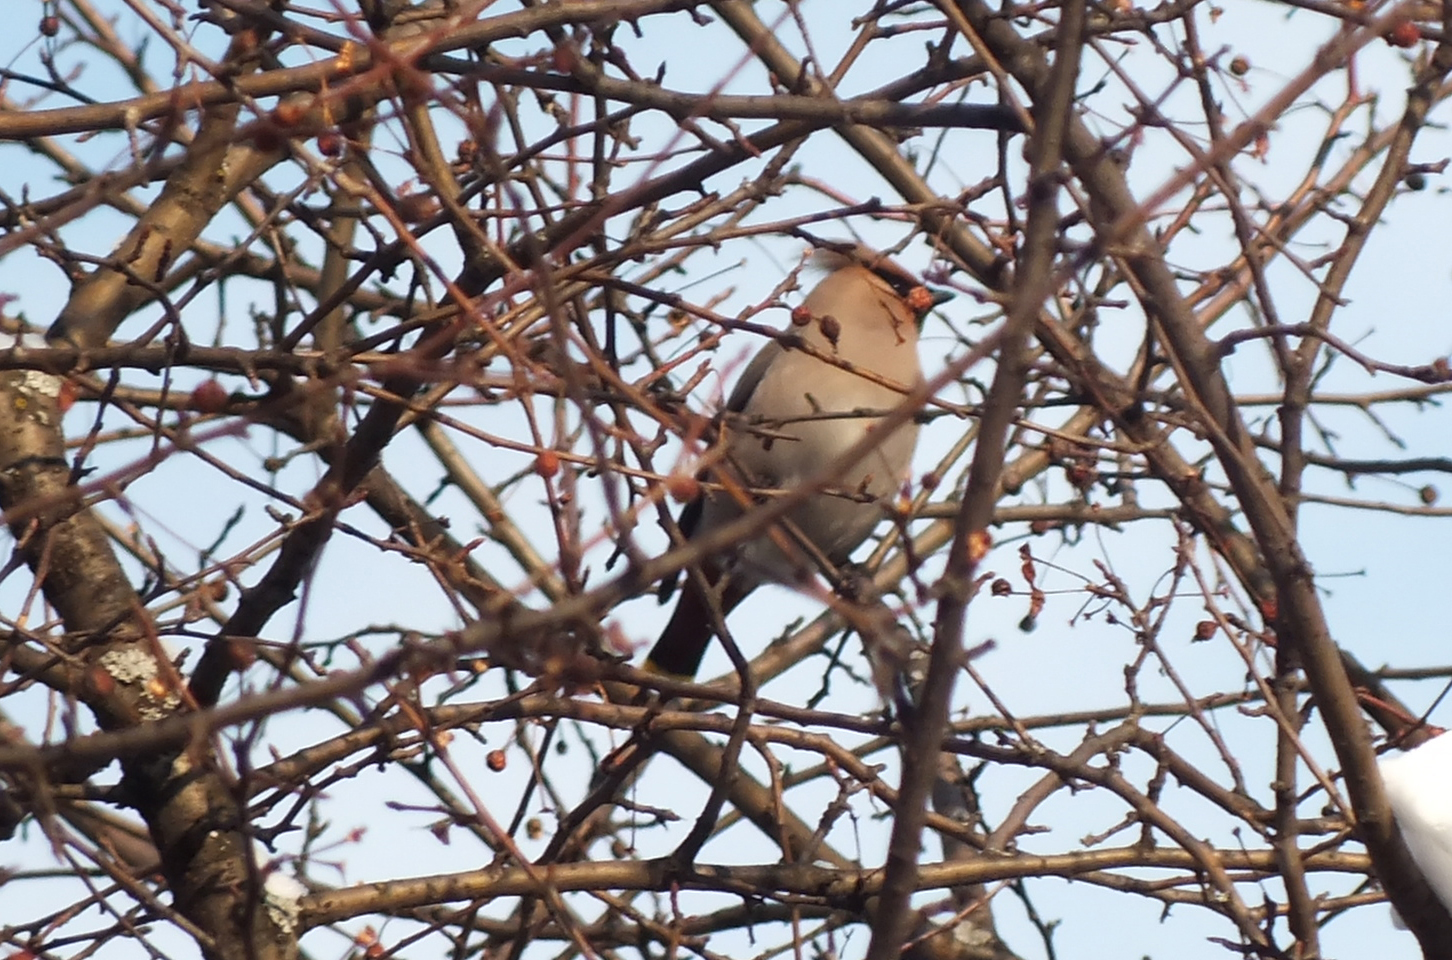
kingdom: Animalia
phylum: Chordata
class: Aves
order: Passeriformes
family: Bombycillidae
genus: Bombycilla
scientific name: Bombycilla garrulus
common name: Bohemian waxwing
